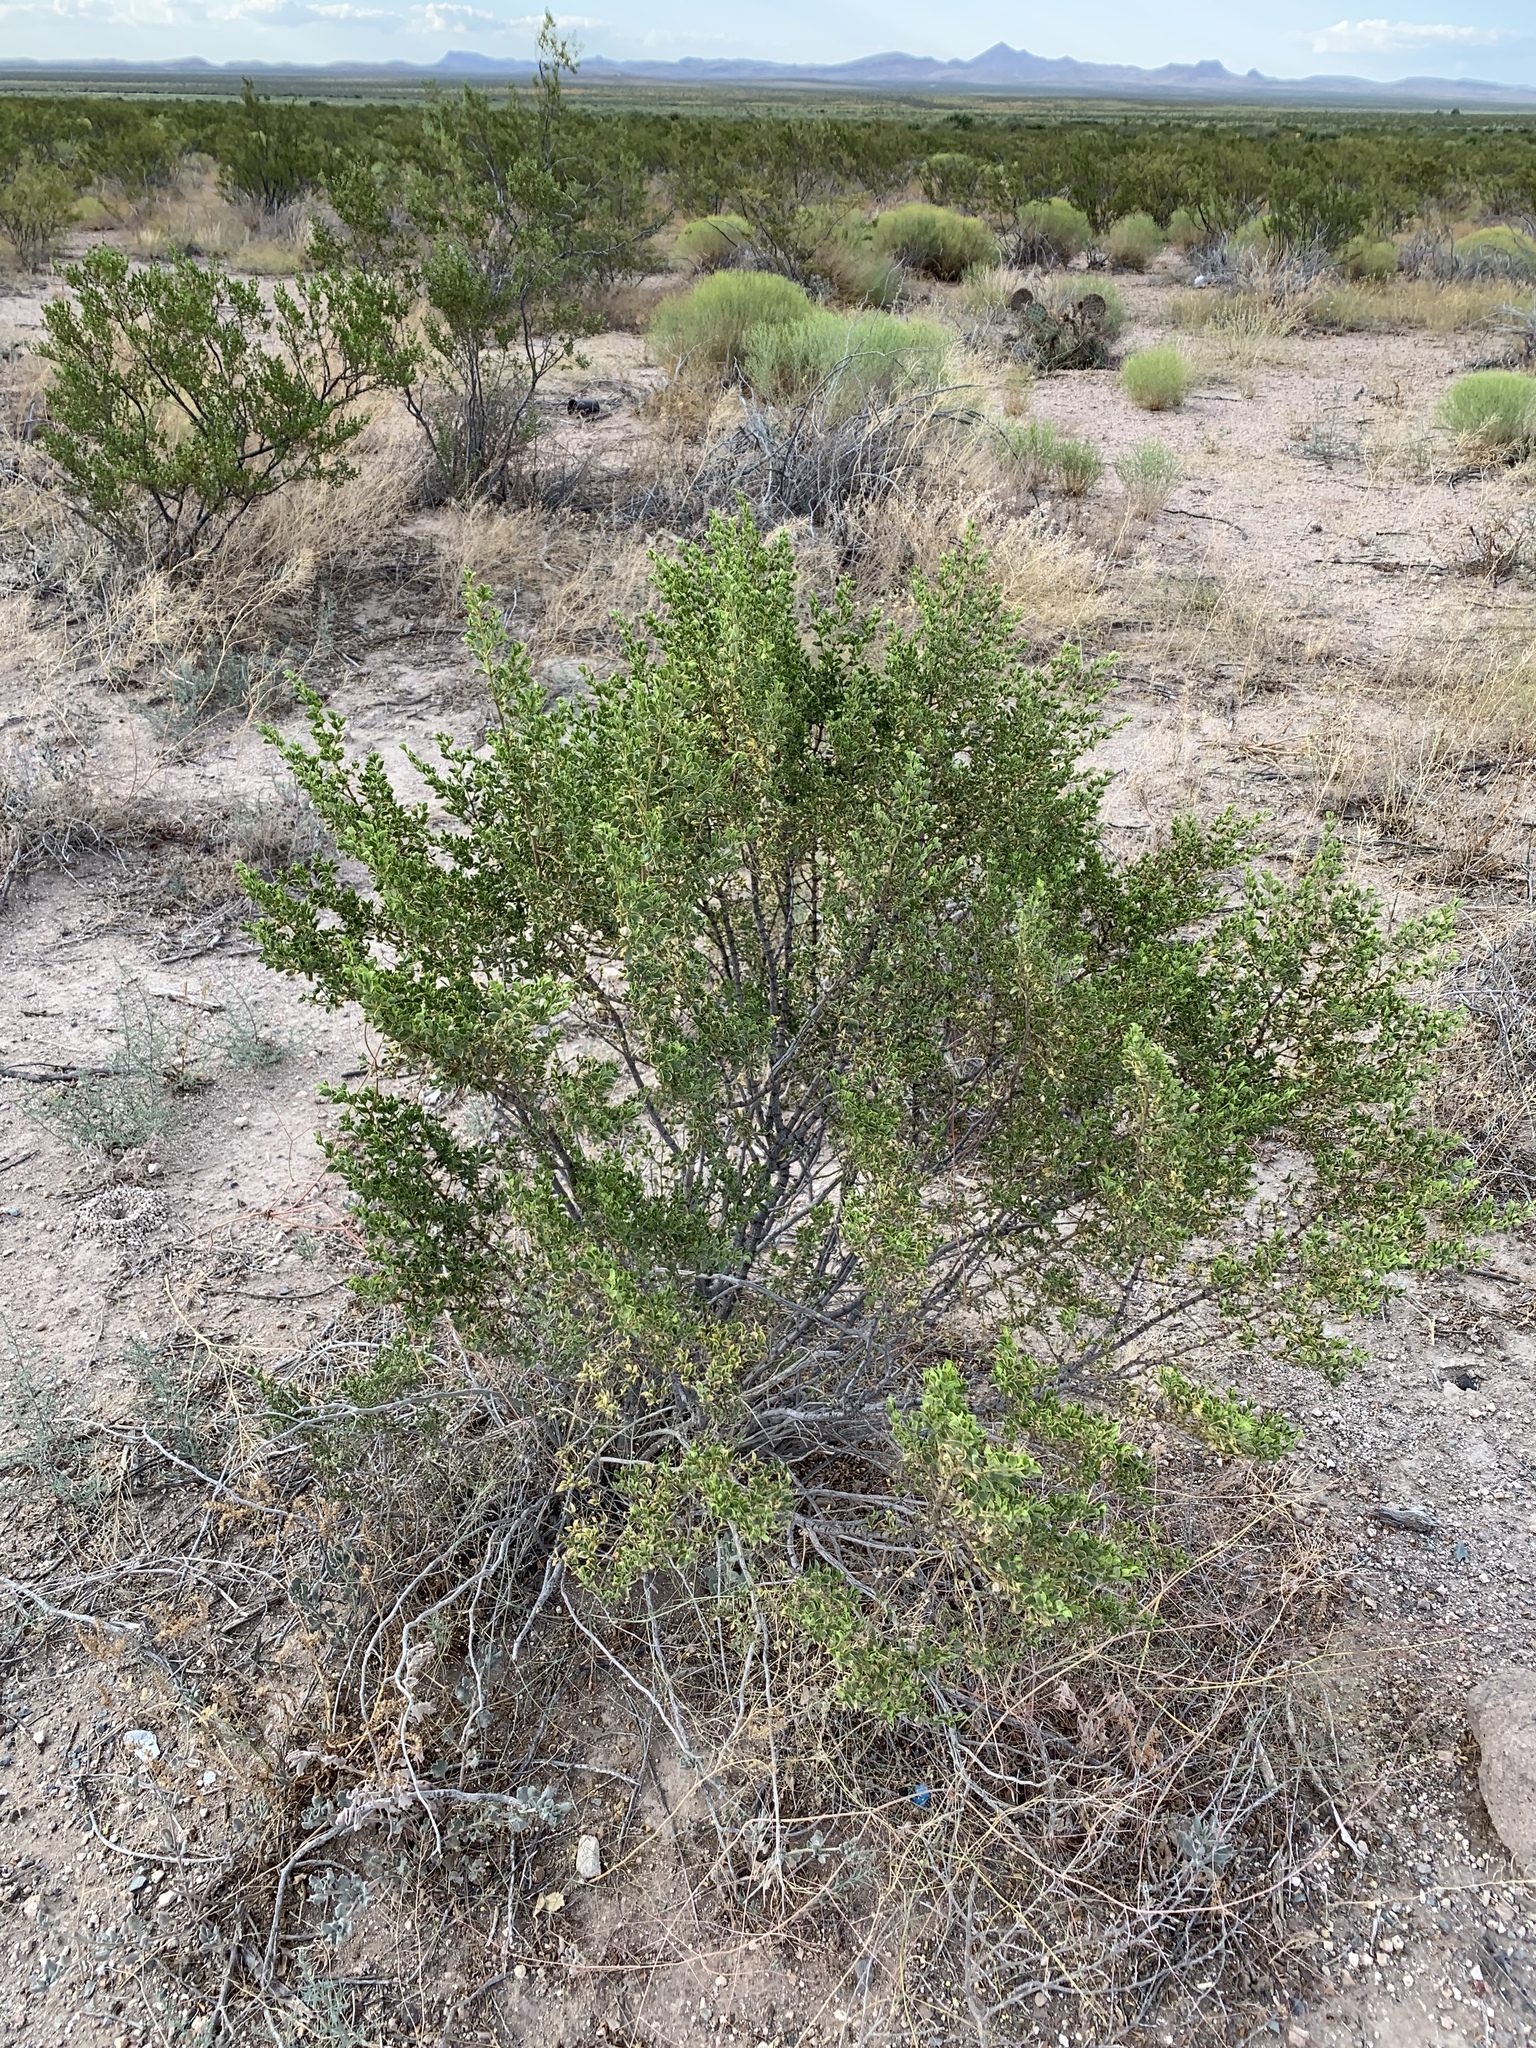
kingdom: Plantae
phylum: Tracheophyta
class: Magnoliopsida
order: Zygophyllales
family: Zygophyllaceae
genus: Larrea
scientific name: Larrea tridentata
